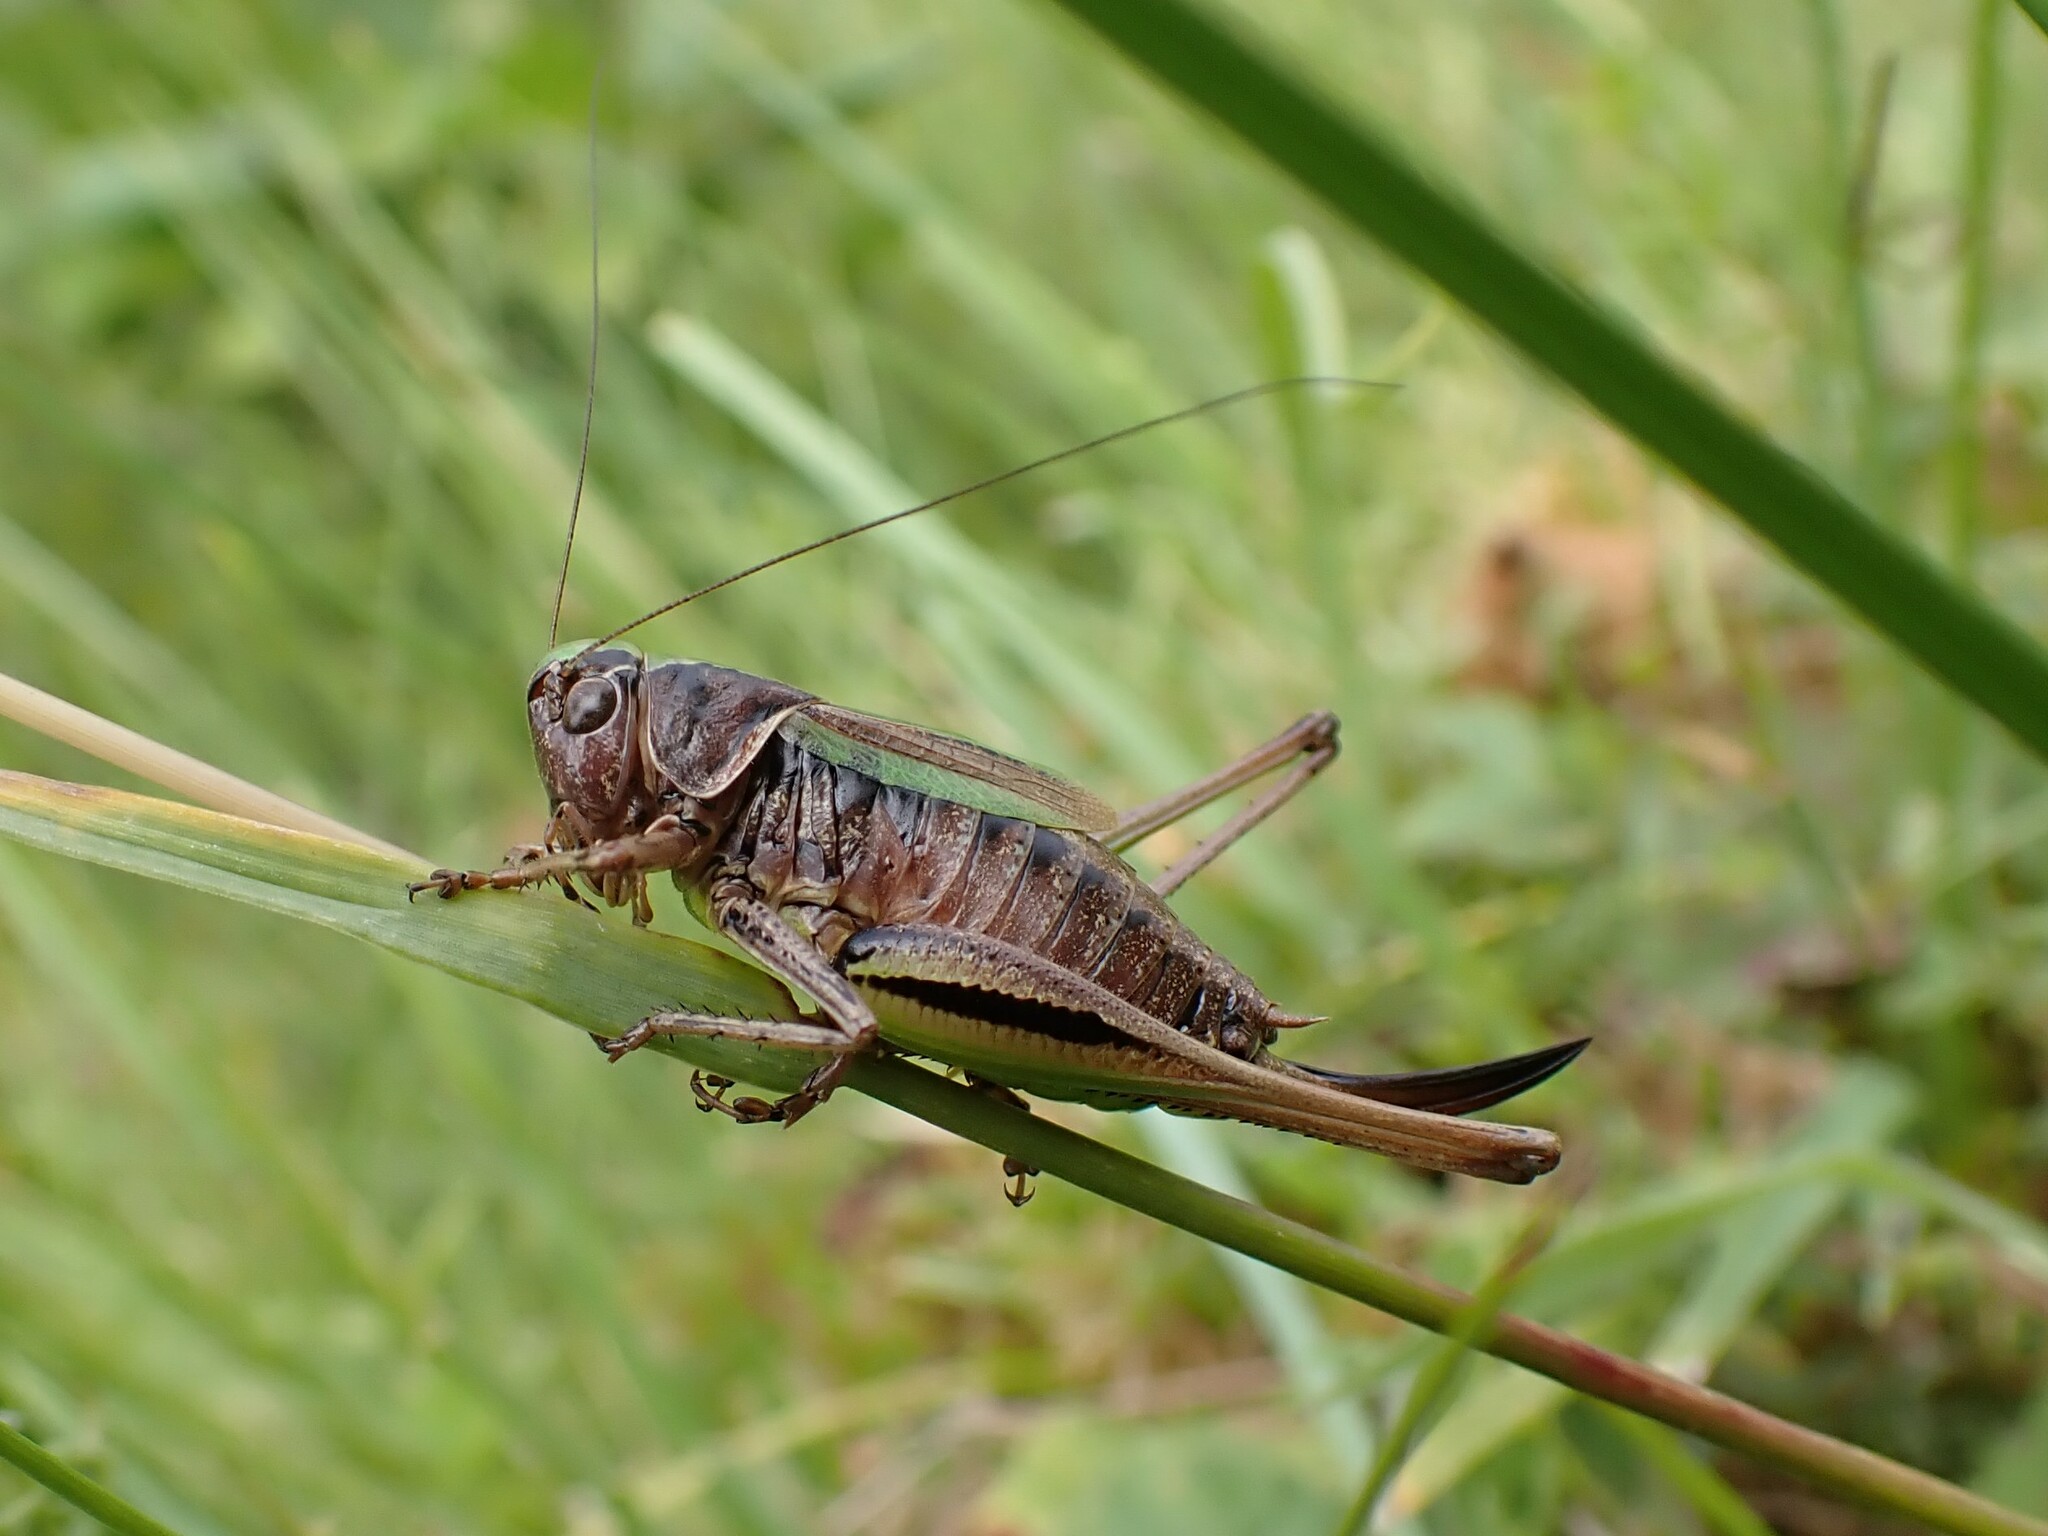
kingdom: Animalia
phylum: Arthropoda
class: Insecta
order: Orthoptera
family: Tettigoniidae
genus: Metrioptera
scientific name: Metrioptera brachyptera
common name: Bog bush-cricket
